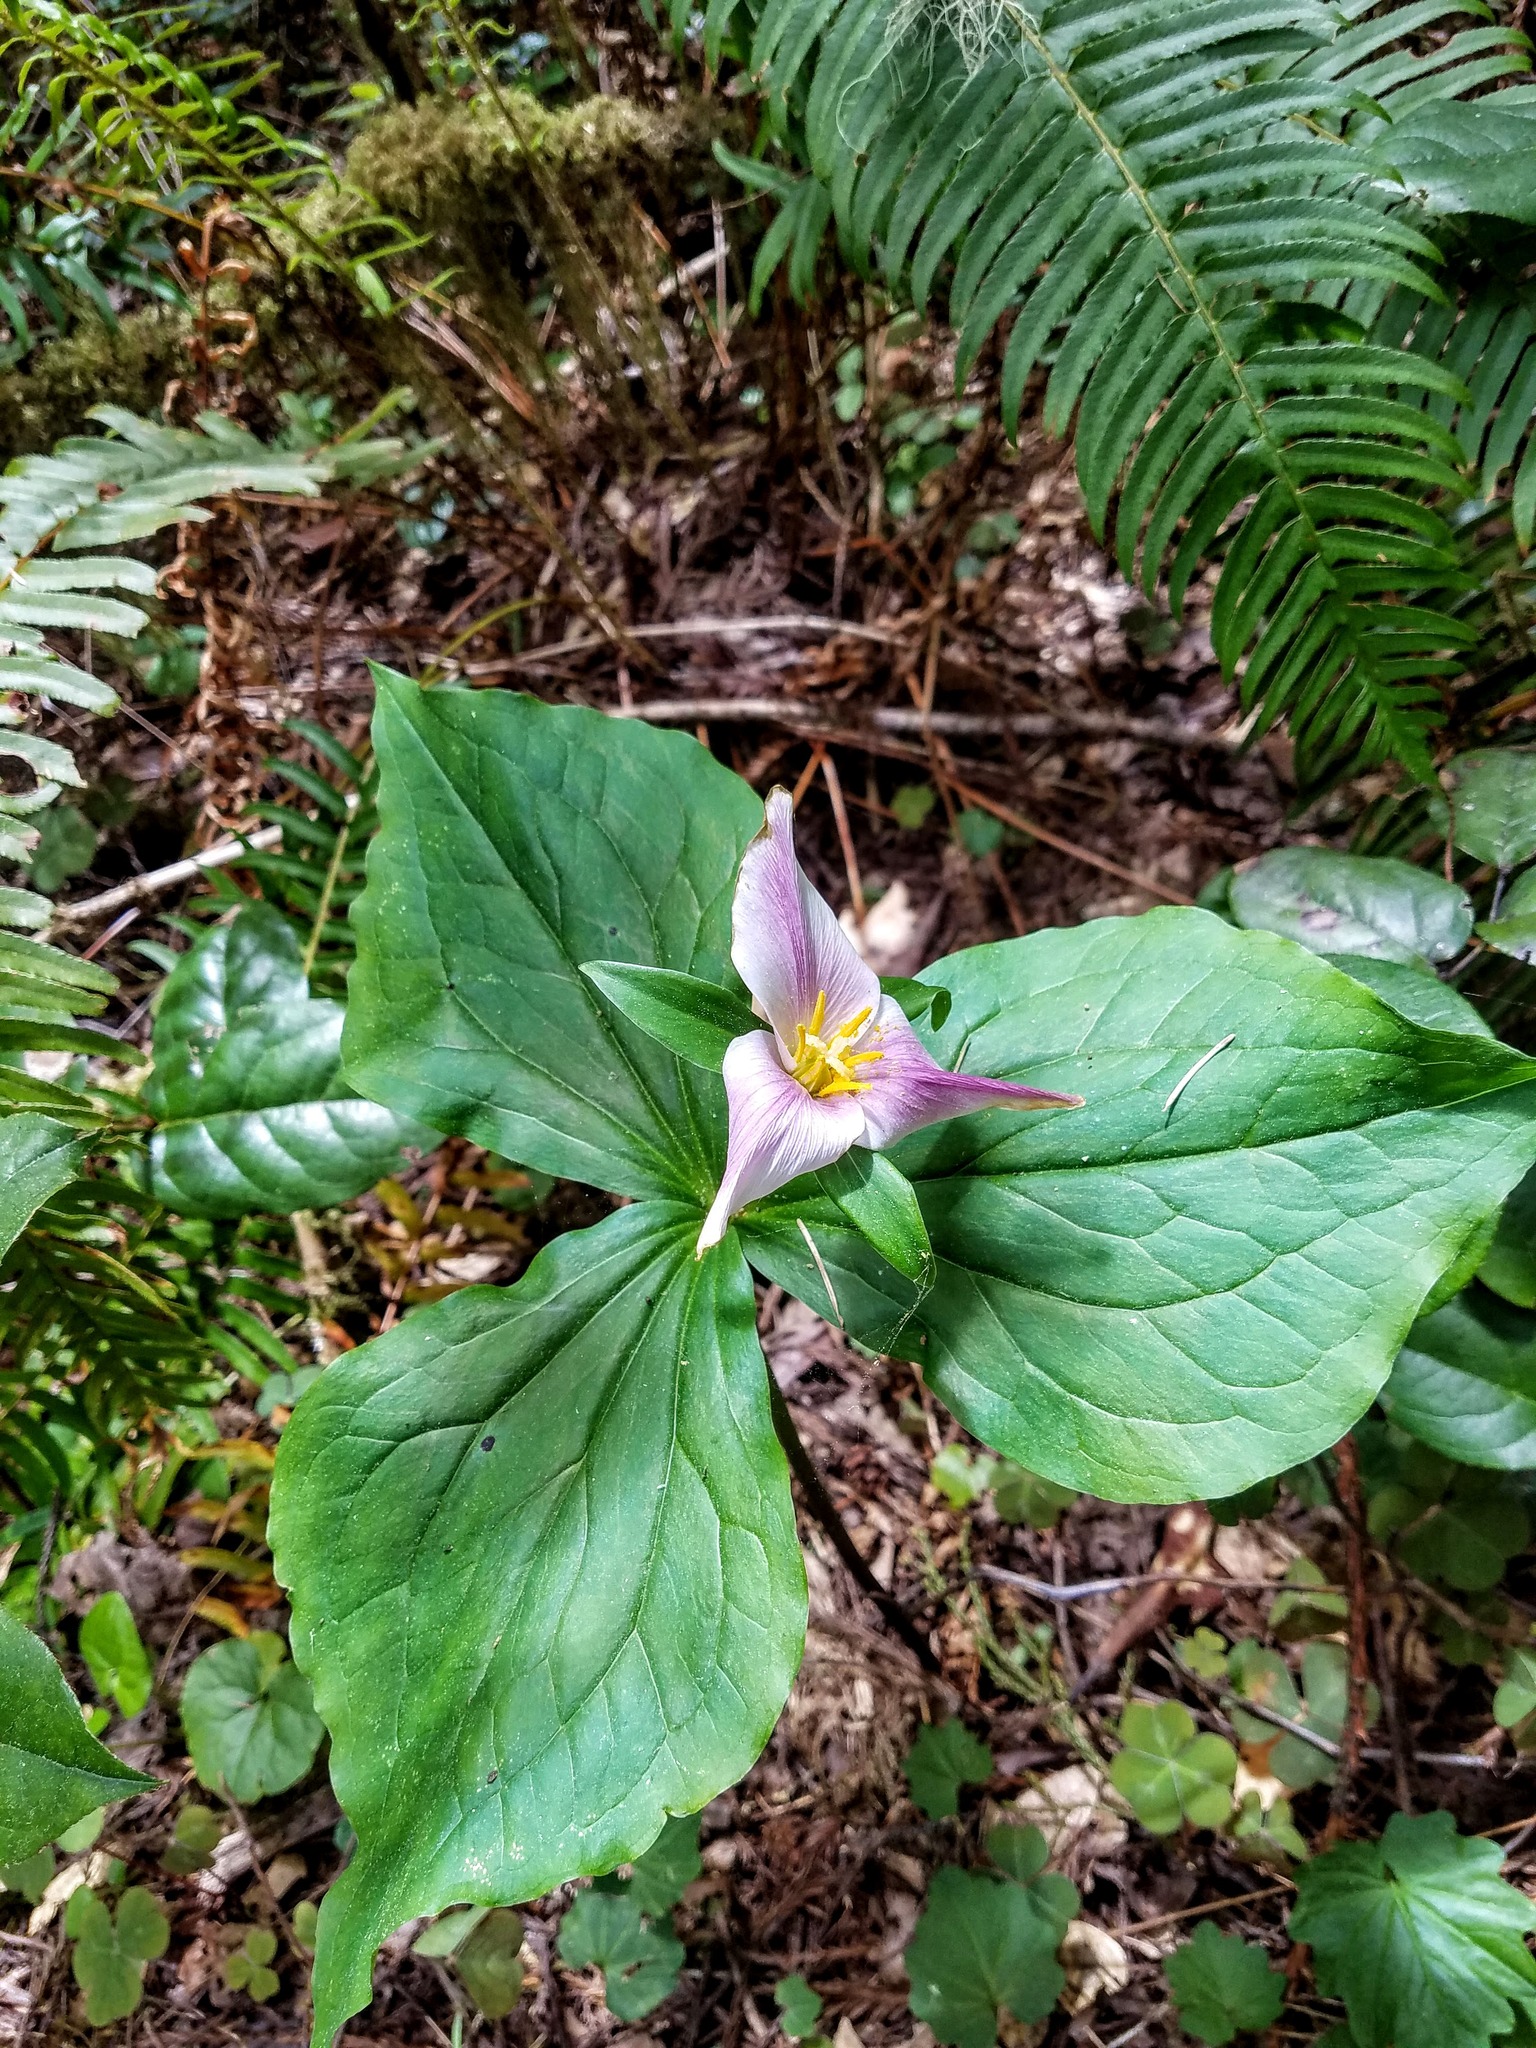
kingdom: Plantae
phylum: Tracheophyta
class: Liliopsida
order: Liliales
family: Melanthiaceae
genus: Trillium
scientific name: Trillium ovatum
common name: Pacific trillium
